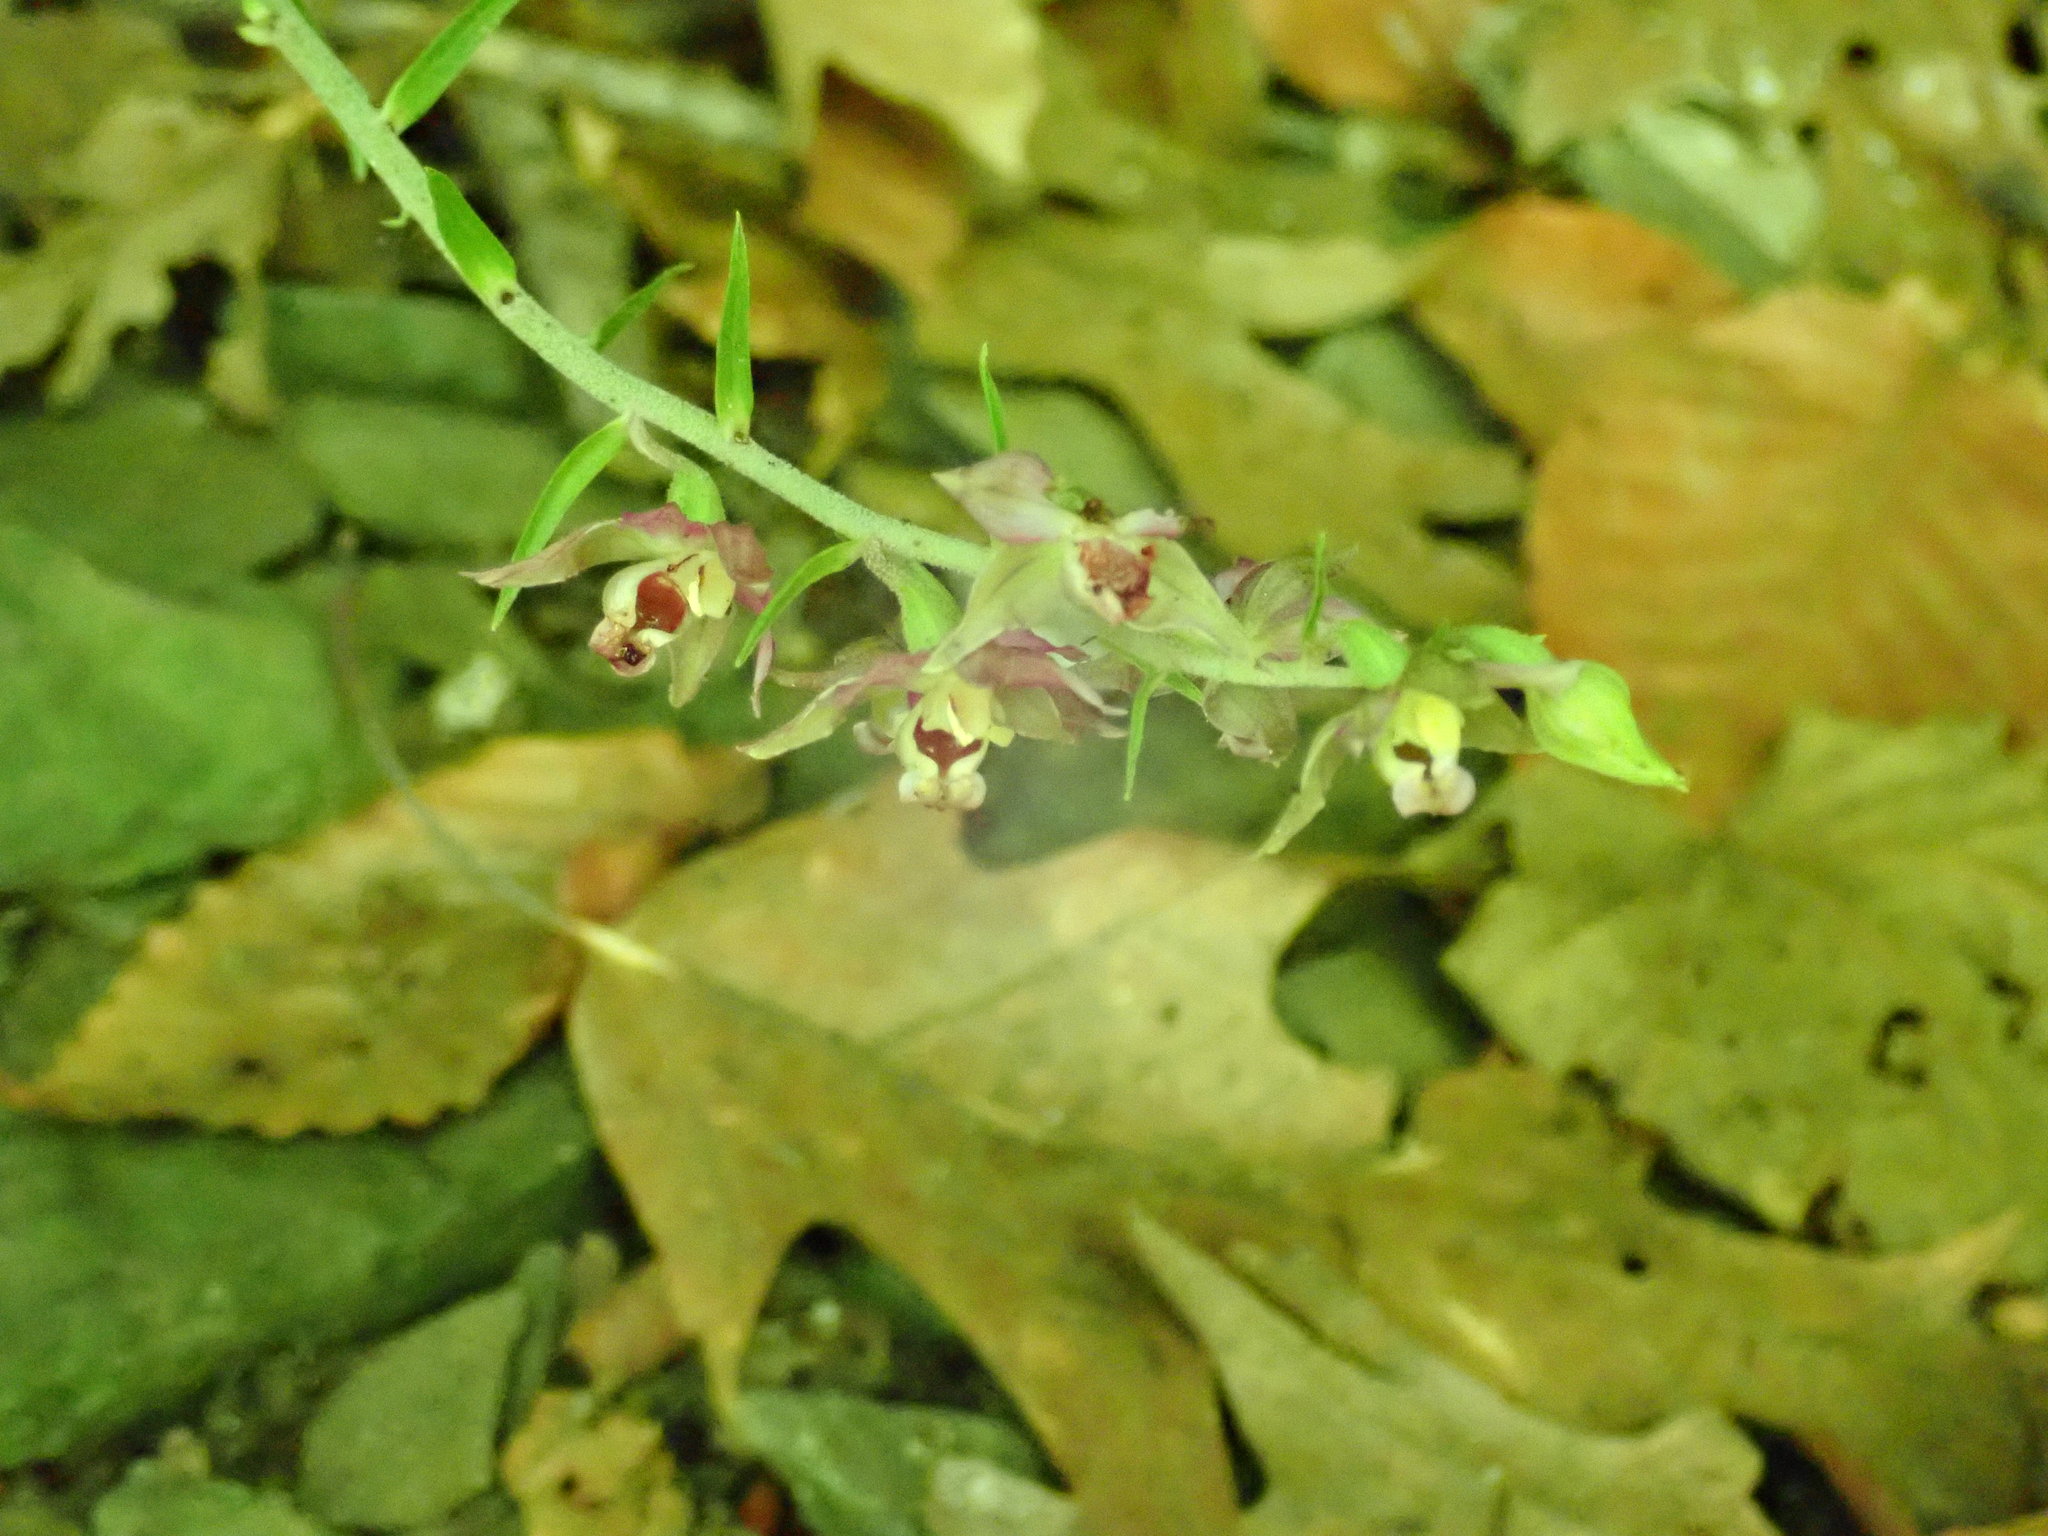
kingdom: Plantae
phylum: Tracheophyta
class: Liliopsida
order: Asparagales
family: Orchidaceae
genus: Epipactis
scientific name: Epipactis helleborine
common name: Broad-leaved helleborine
